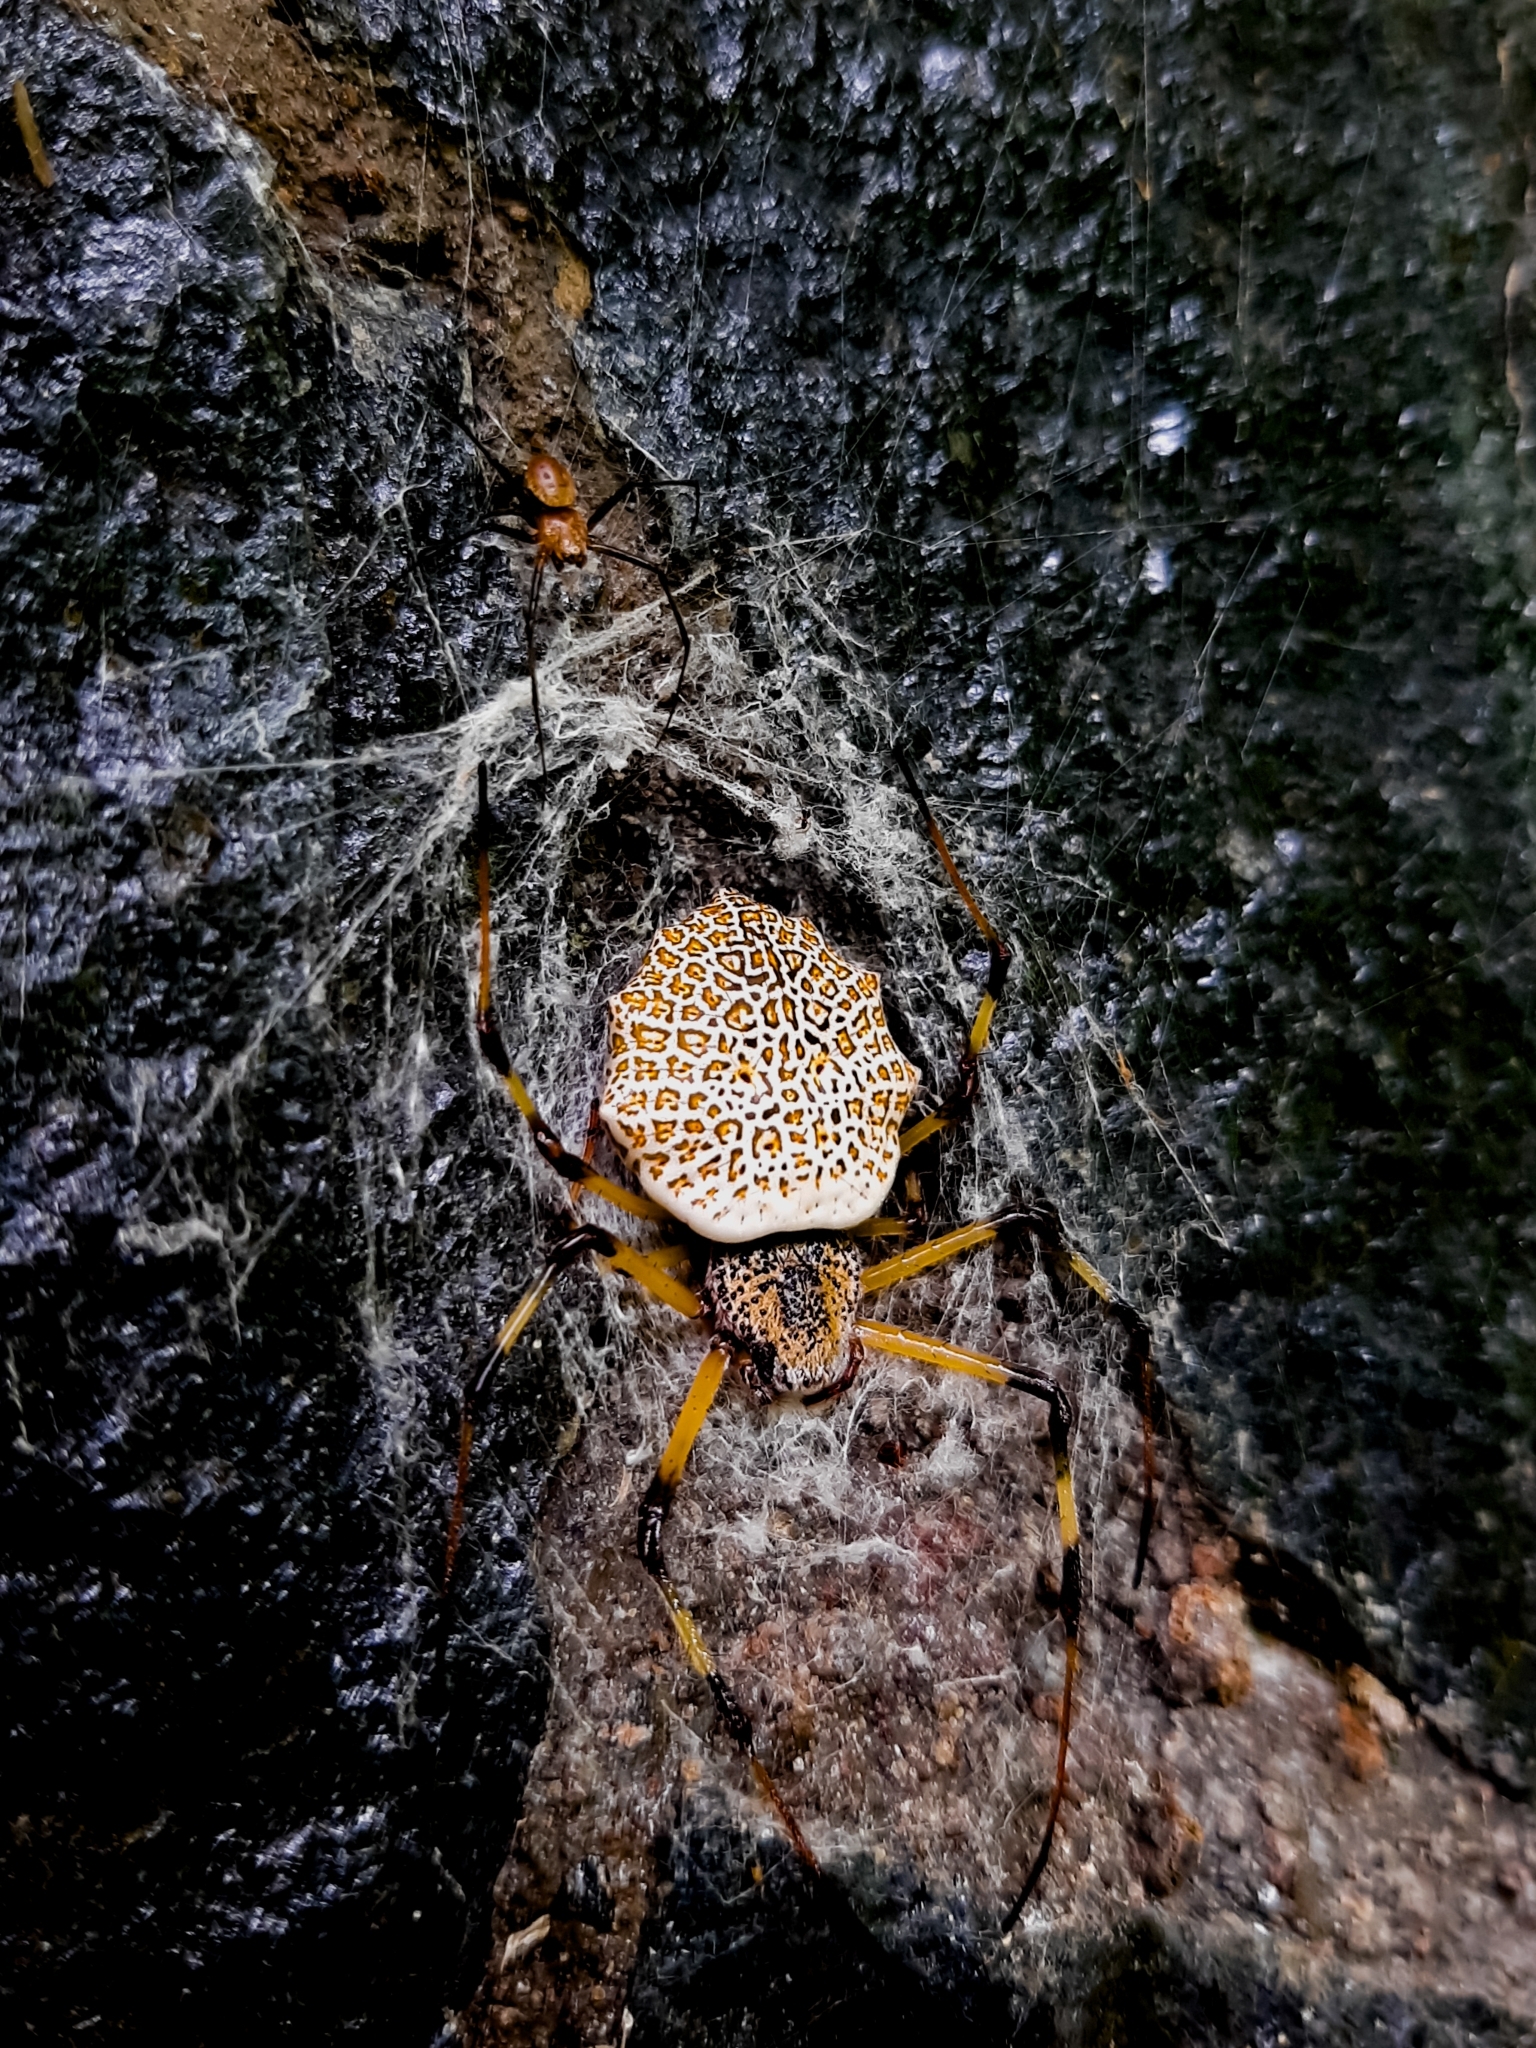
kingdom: Animalia
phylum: Arthropoda
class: Arachnida
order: Araneae
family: Araneidae
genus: Herennia
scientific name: Herennia etruscilla
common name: Javan coin spider
